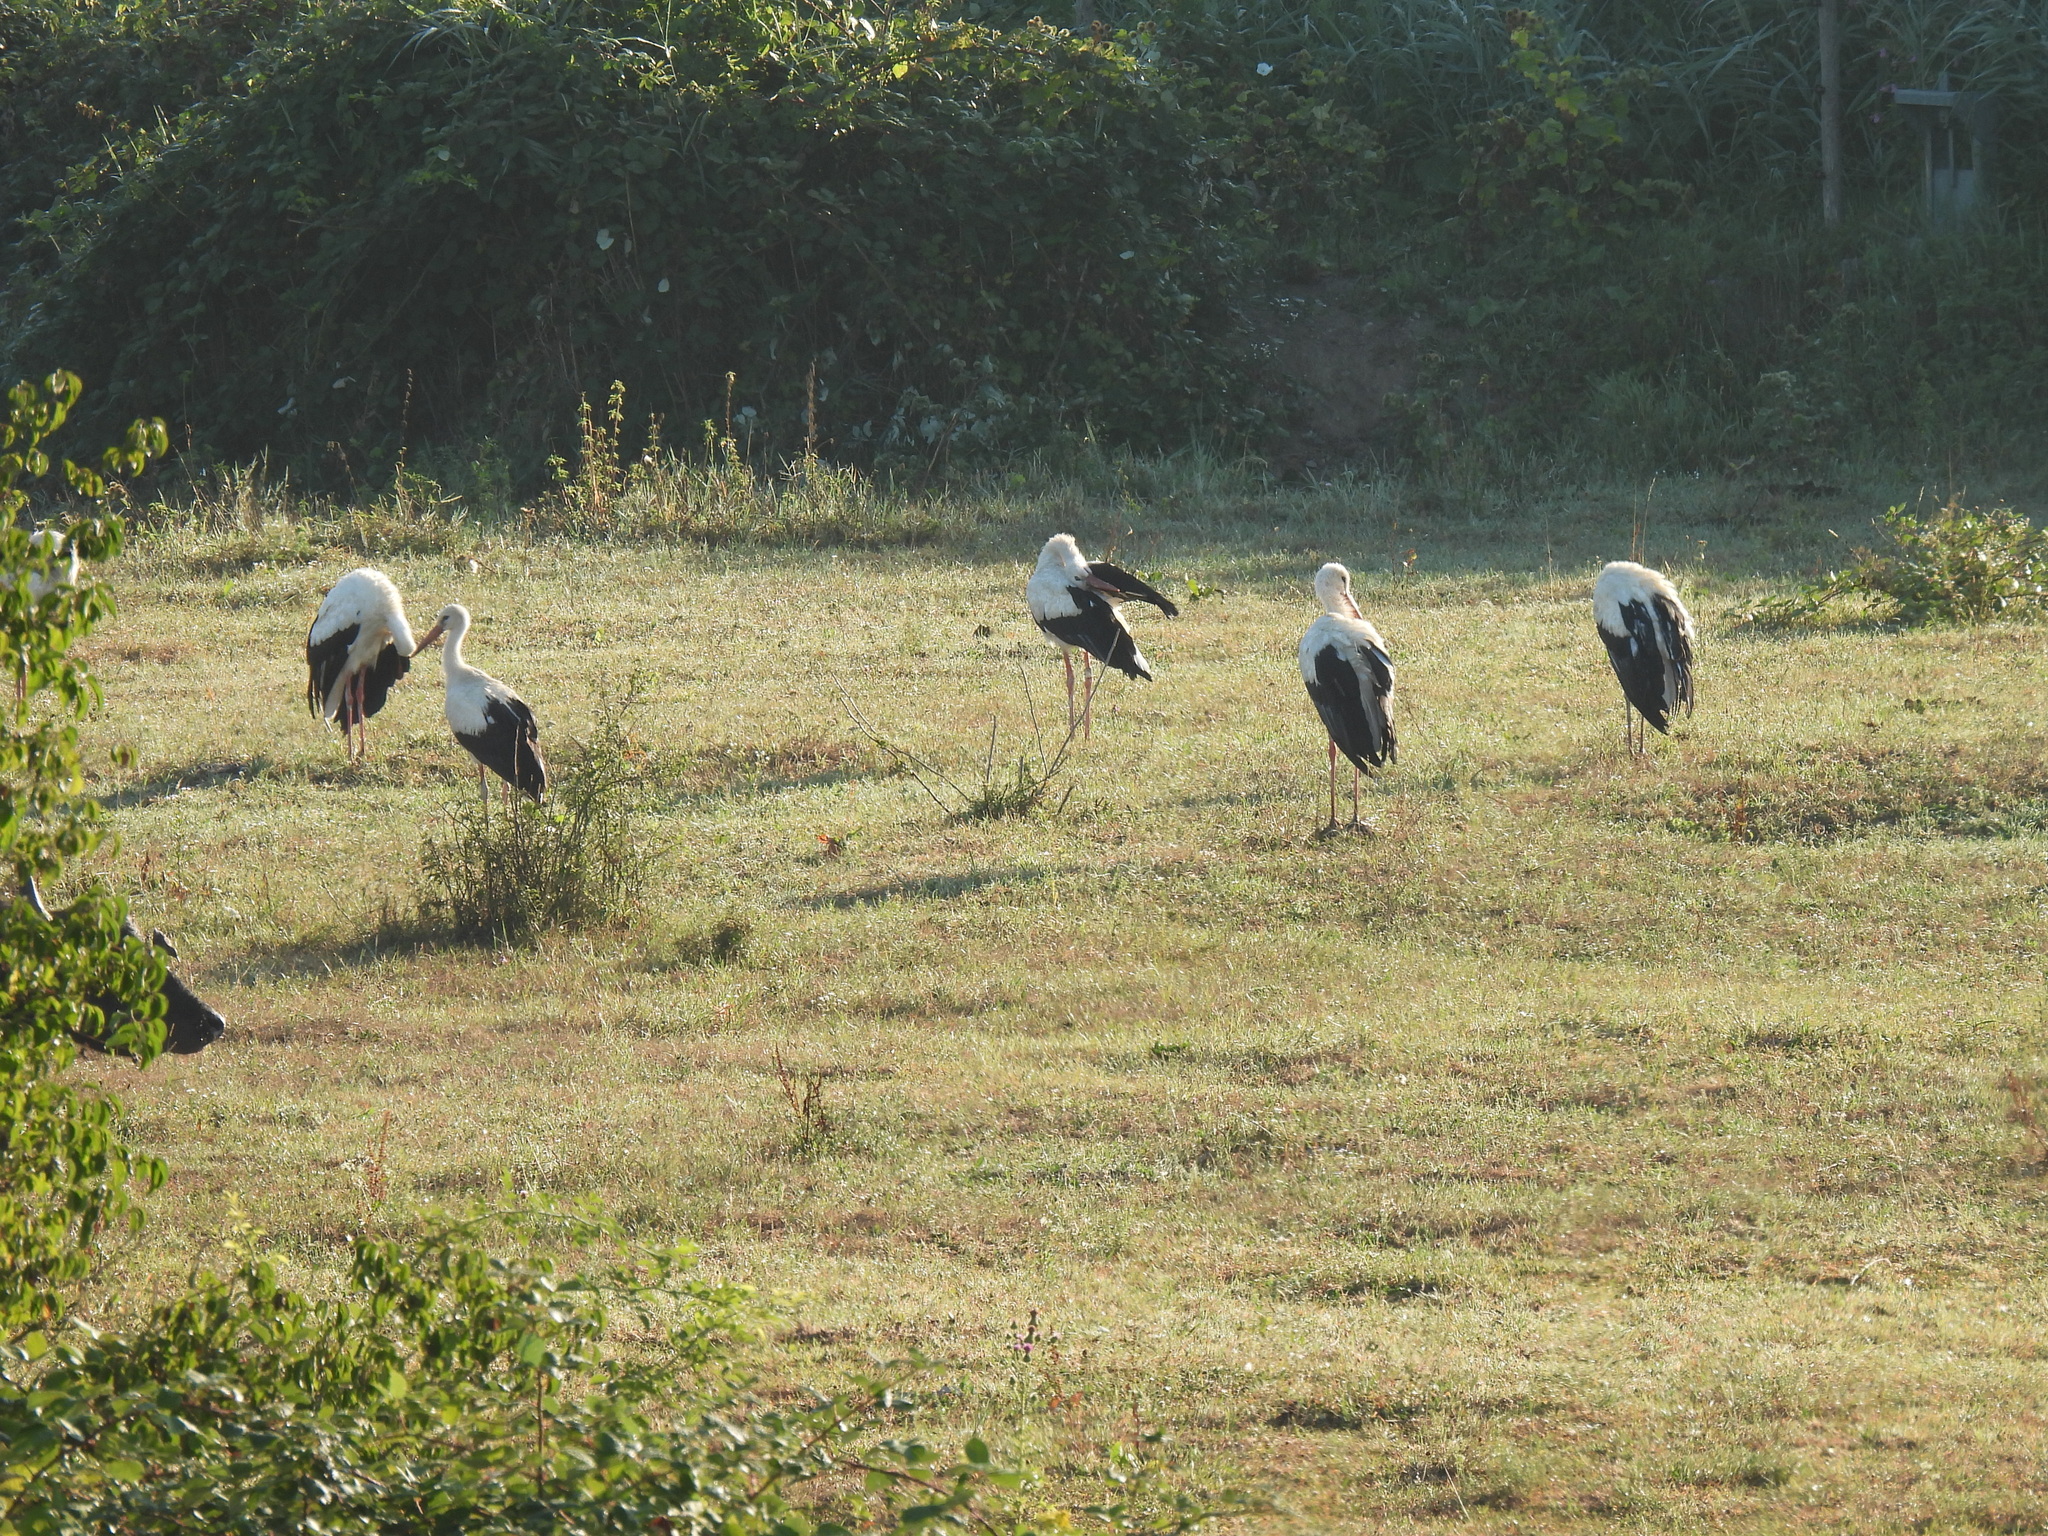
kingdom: Animalia
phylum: Chordata
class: Aves
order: Ciconiiformes
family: Ciconiidae
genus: Ciconia
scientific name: Ciconia ciconia
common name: White stork
